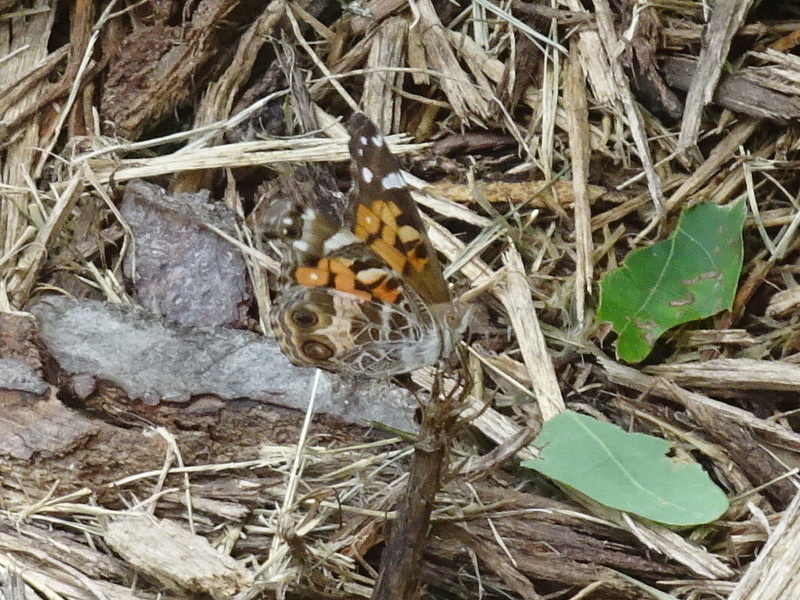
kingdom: Animalia
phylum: Arthropoda
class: Insecta
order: Lepidoptera
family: Nymphalidae
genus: Vanessa
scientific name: Vanessa virginiensis
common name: American lady
